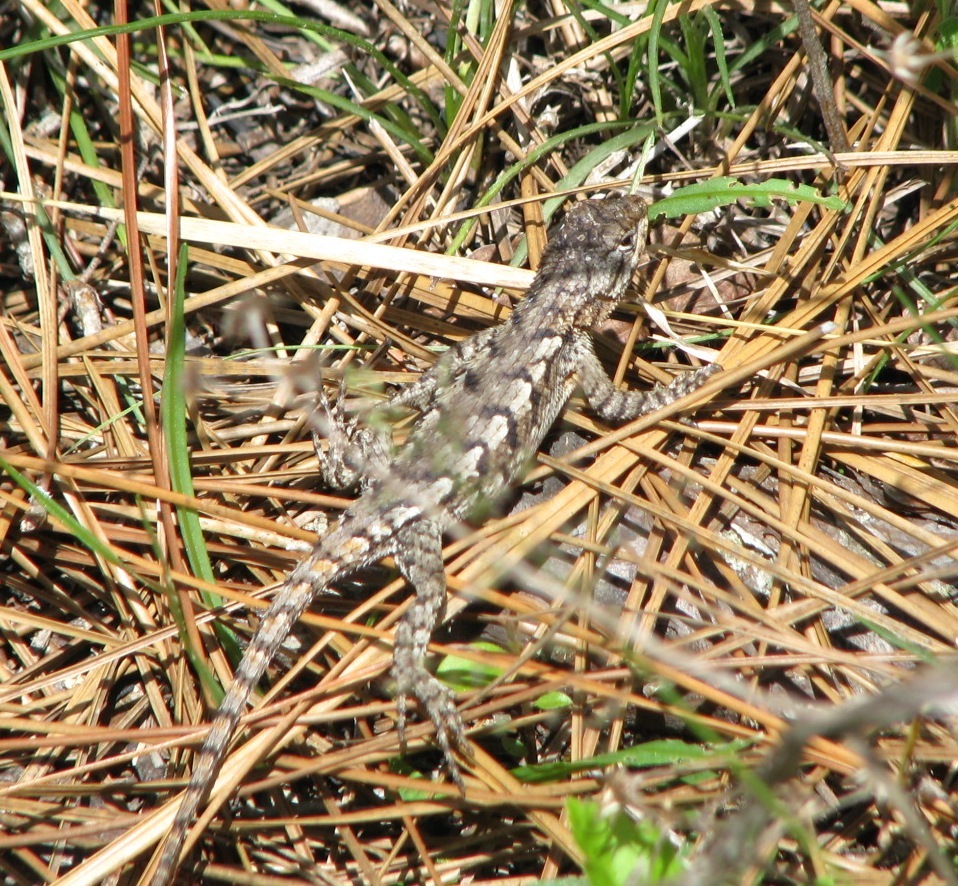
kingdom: Animalia
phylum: Chordata
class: Squamata
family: Phrynosomatidae
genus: Sceloporus
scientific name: Sceloporus consobrinus
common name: Southern prairie lizard
